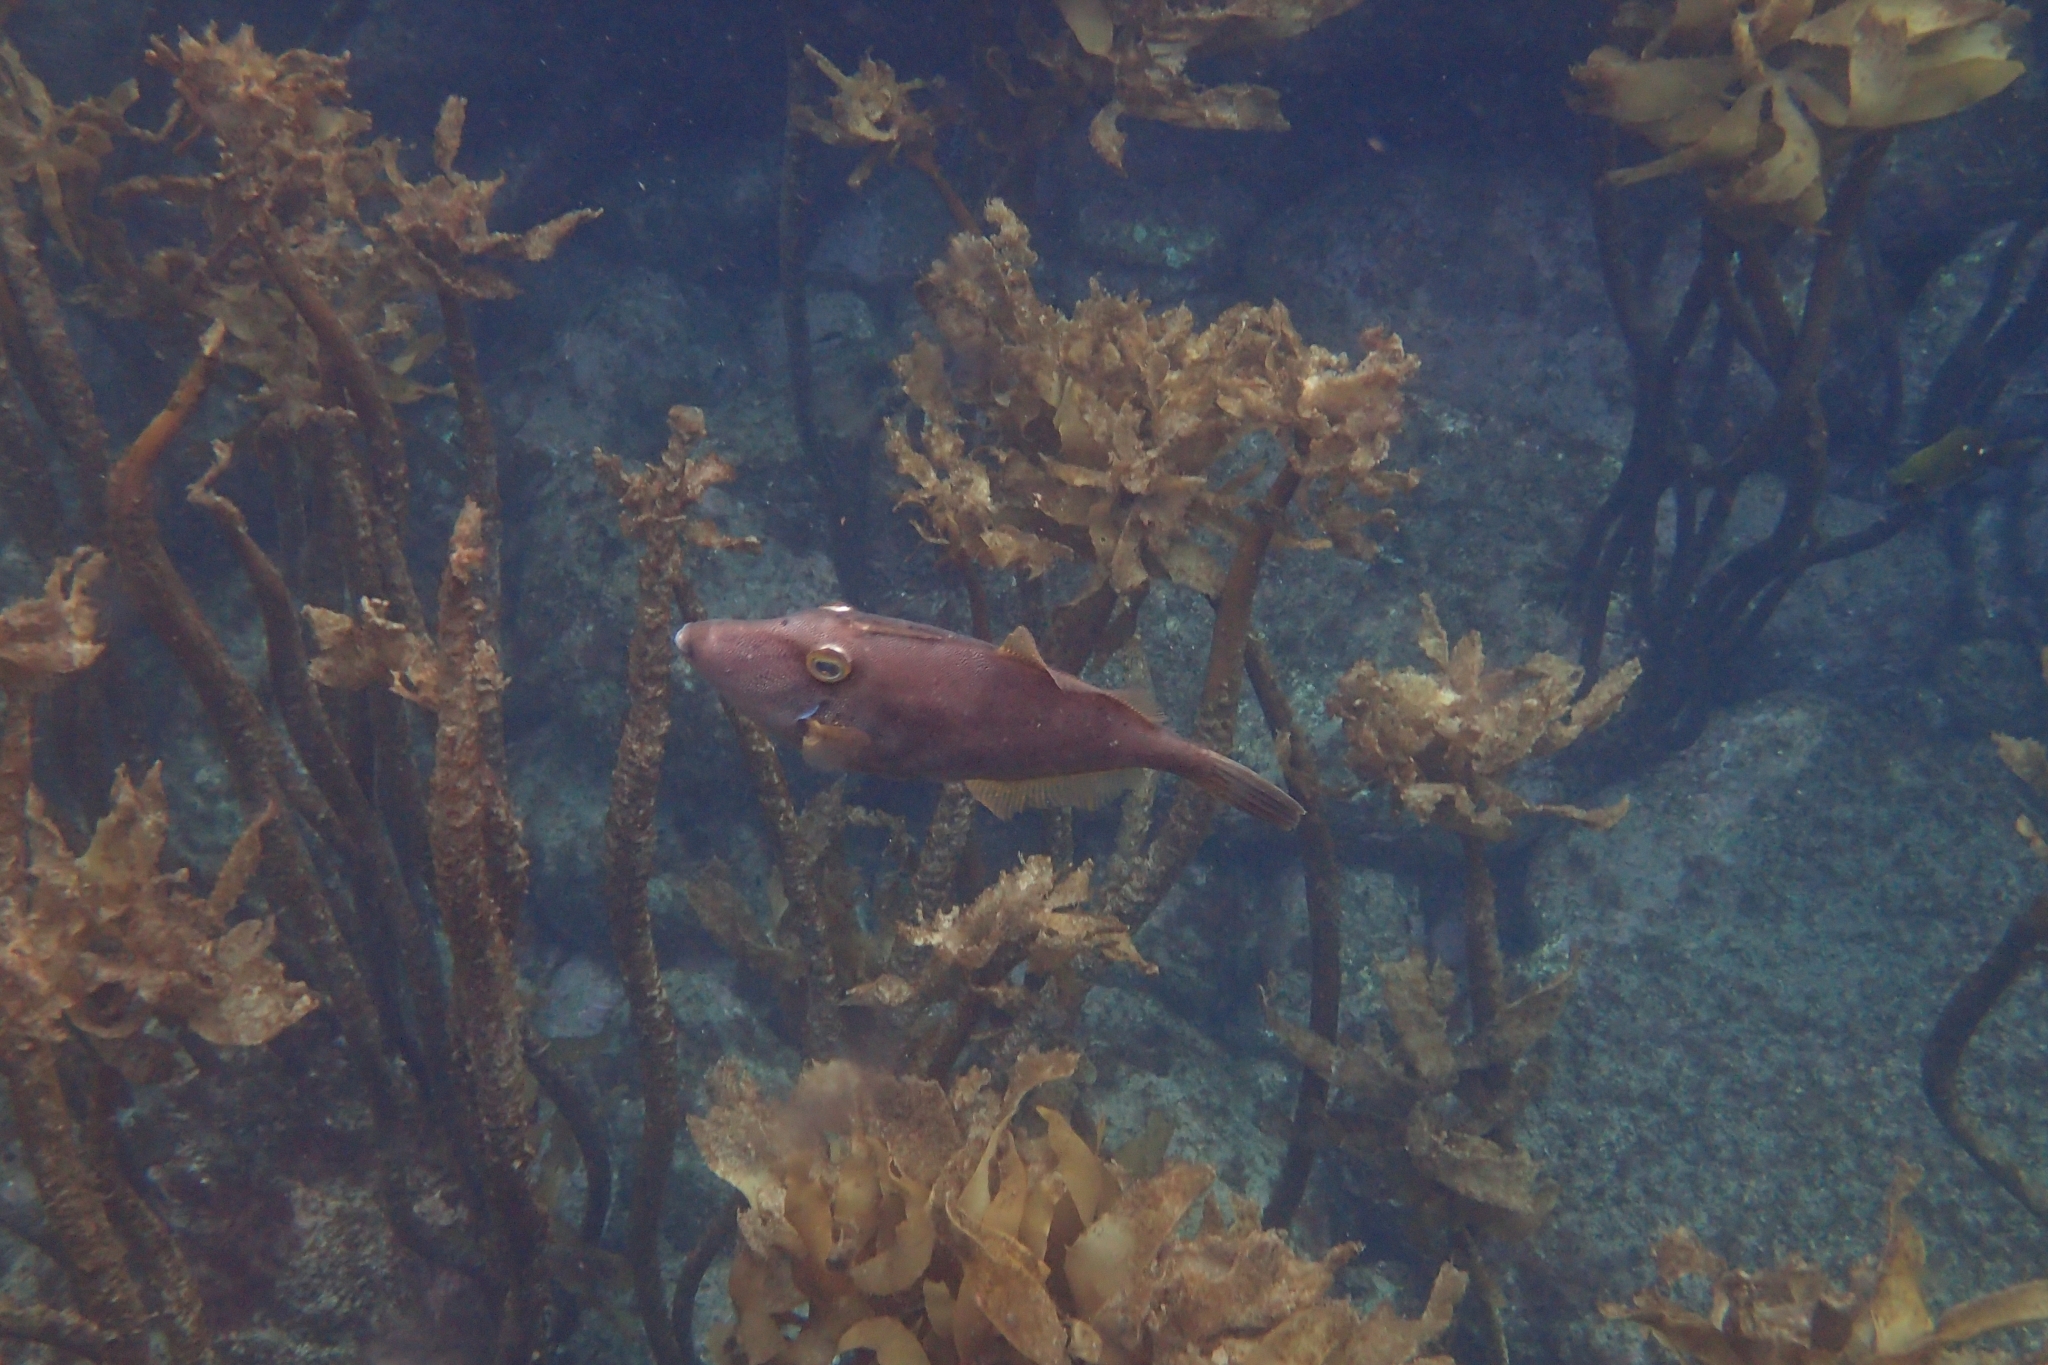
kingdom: Animalia
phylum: Chordata
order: Tetraodontiformes
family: Monacanthidae
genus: Meuschenia
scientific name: Meuschenia scaber
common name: Cosmopolitan leatherjacket
